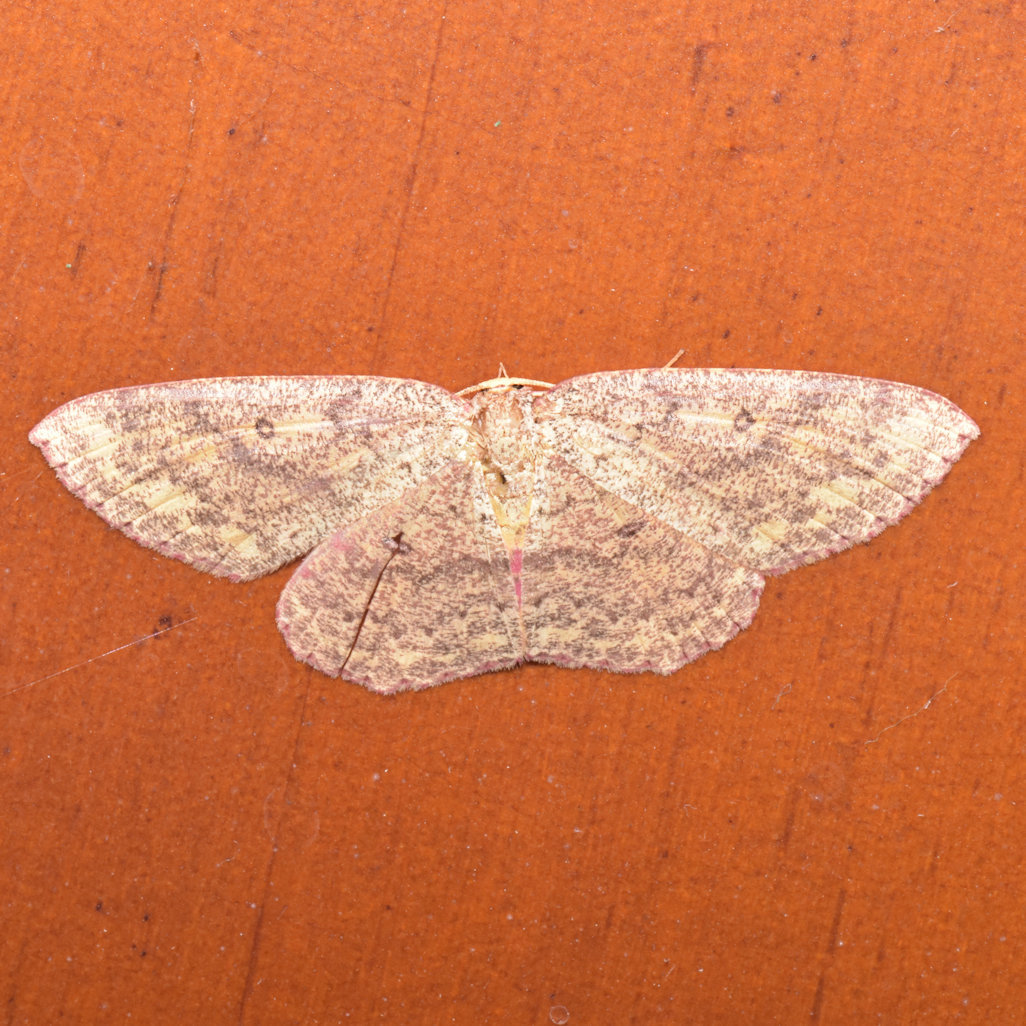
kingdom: Animalia
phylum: Arthropoda
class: Insecta
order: Lepidoptera
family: Geometridae
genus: Cyclophora
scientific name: Cyclophora
